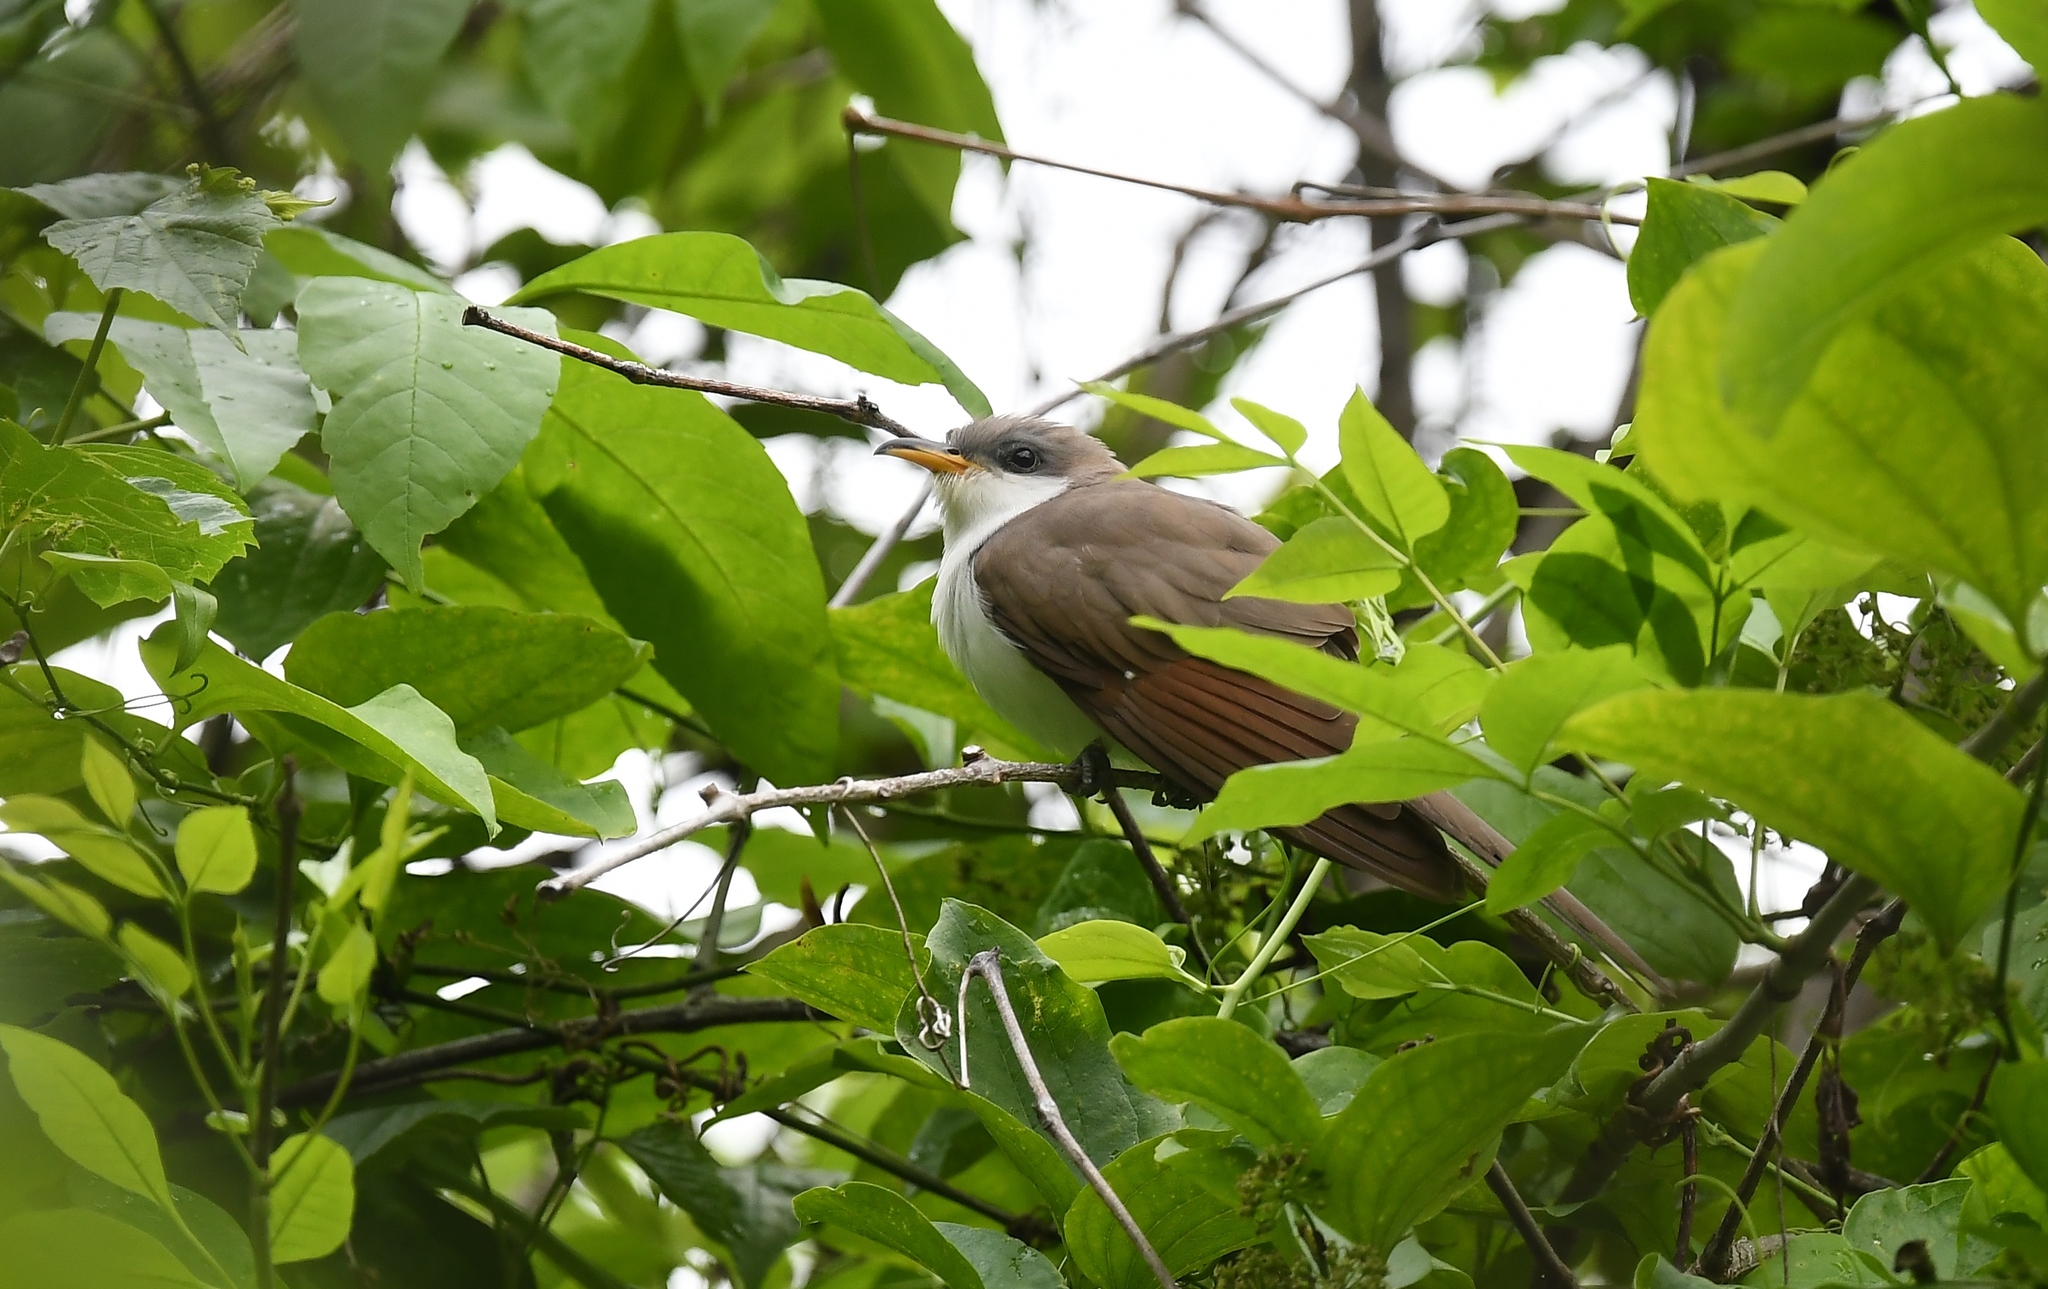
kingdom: Animalia
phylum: Chordata
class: Aves
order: Cuculiformes
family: Cuculidae
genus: Coccyzus
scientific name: Coccyzus americanus
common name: Yellow-billed cuckoo
